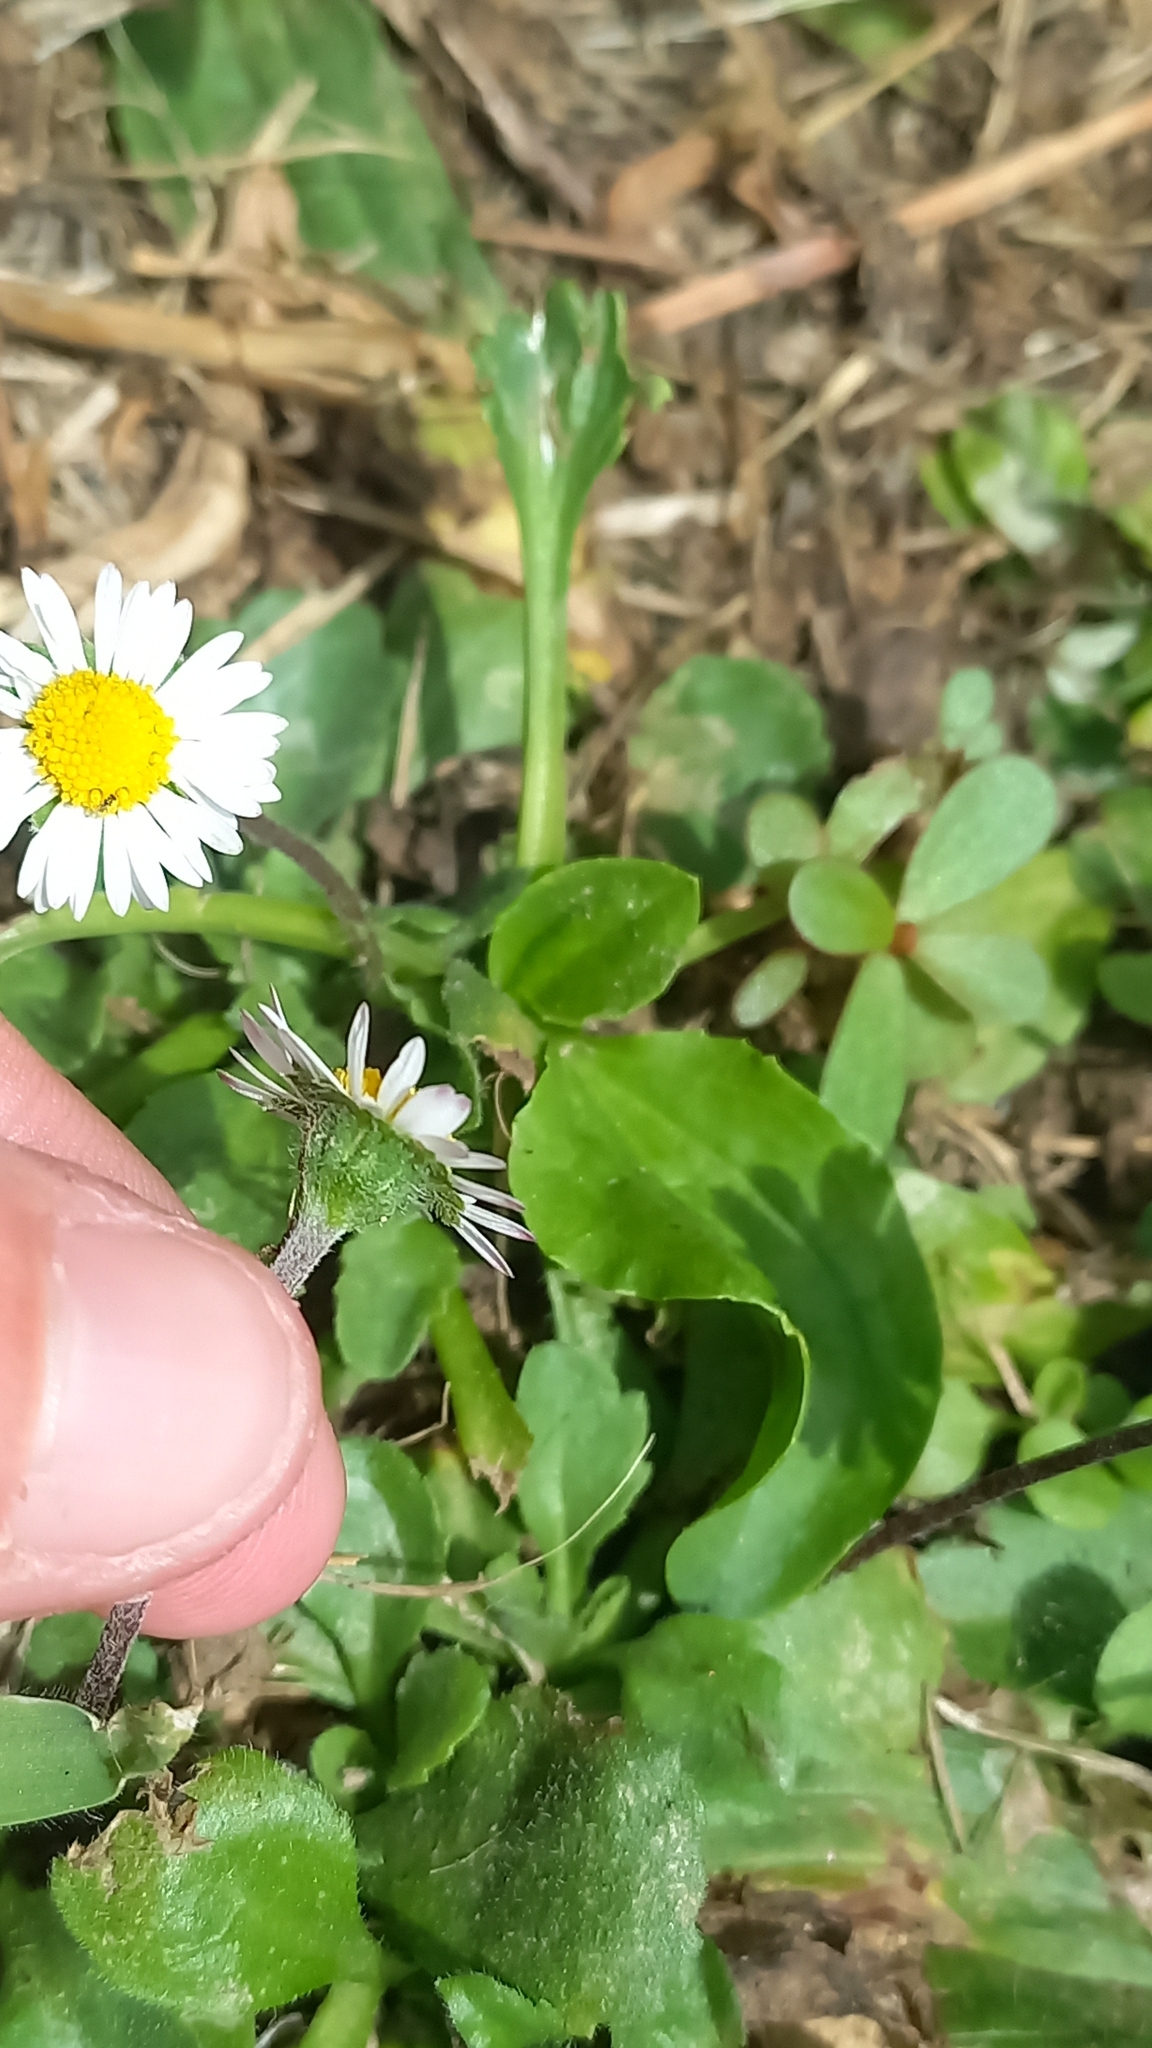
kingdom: Plantae
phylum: Tracheophyta
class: Magnoliopsida
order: Asterales
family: Asteraceae
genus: Bellis
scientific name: Bellis perennis
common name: Lawndaisy
